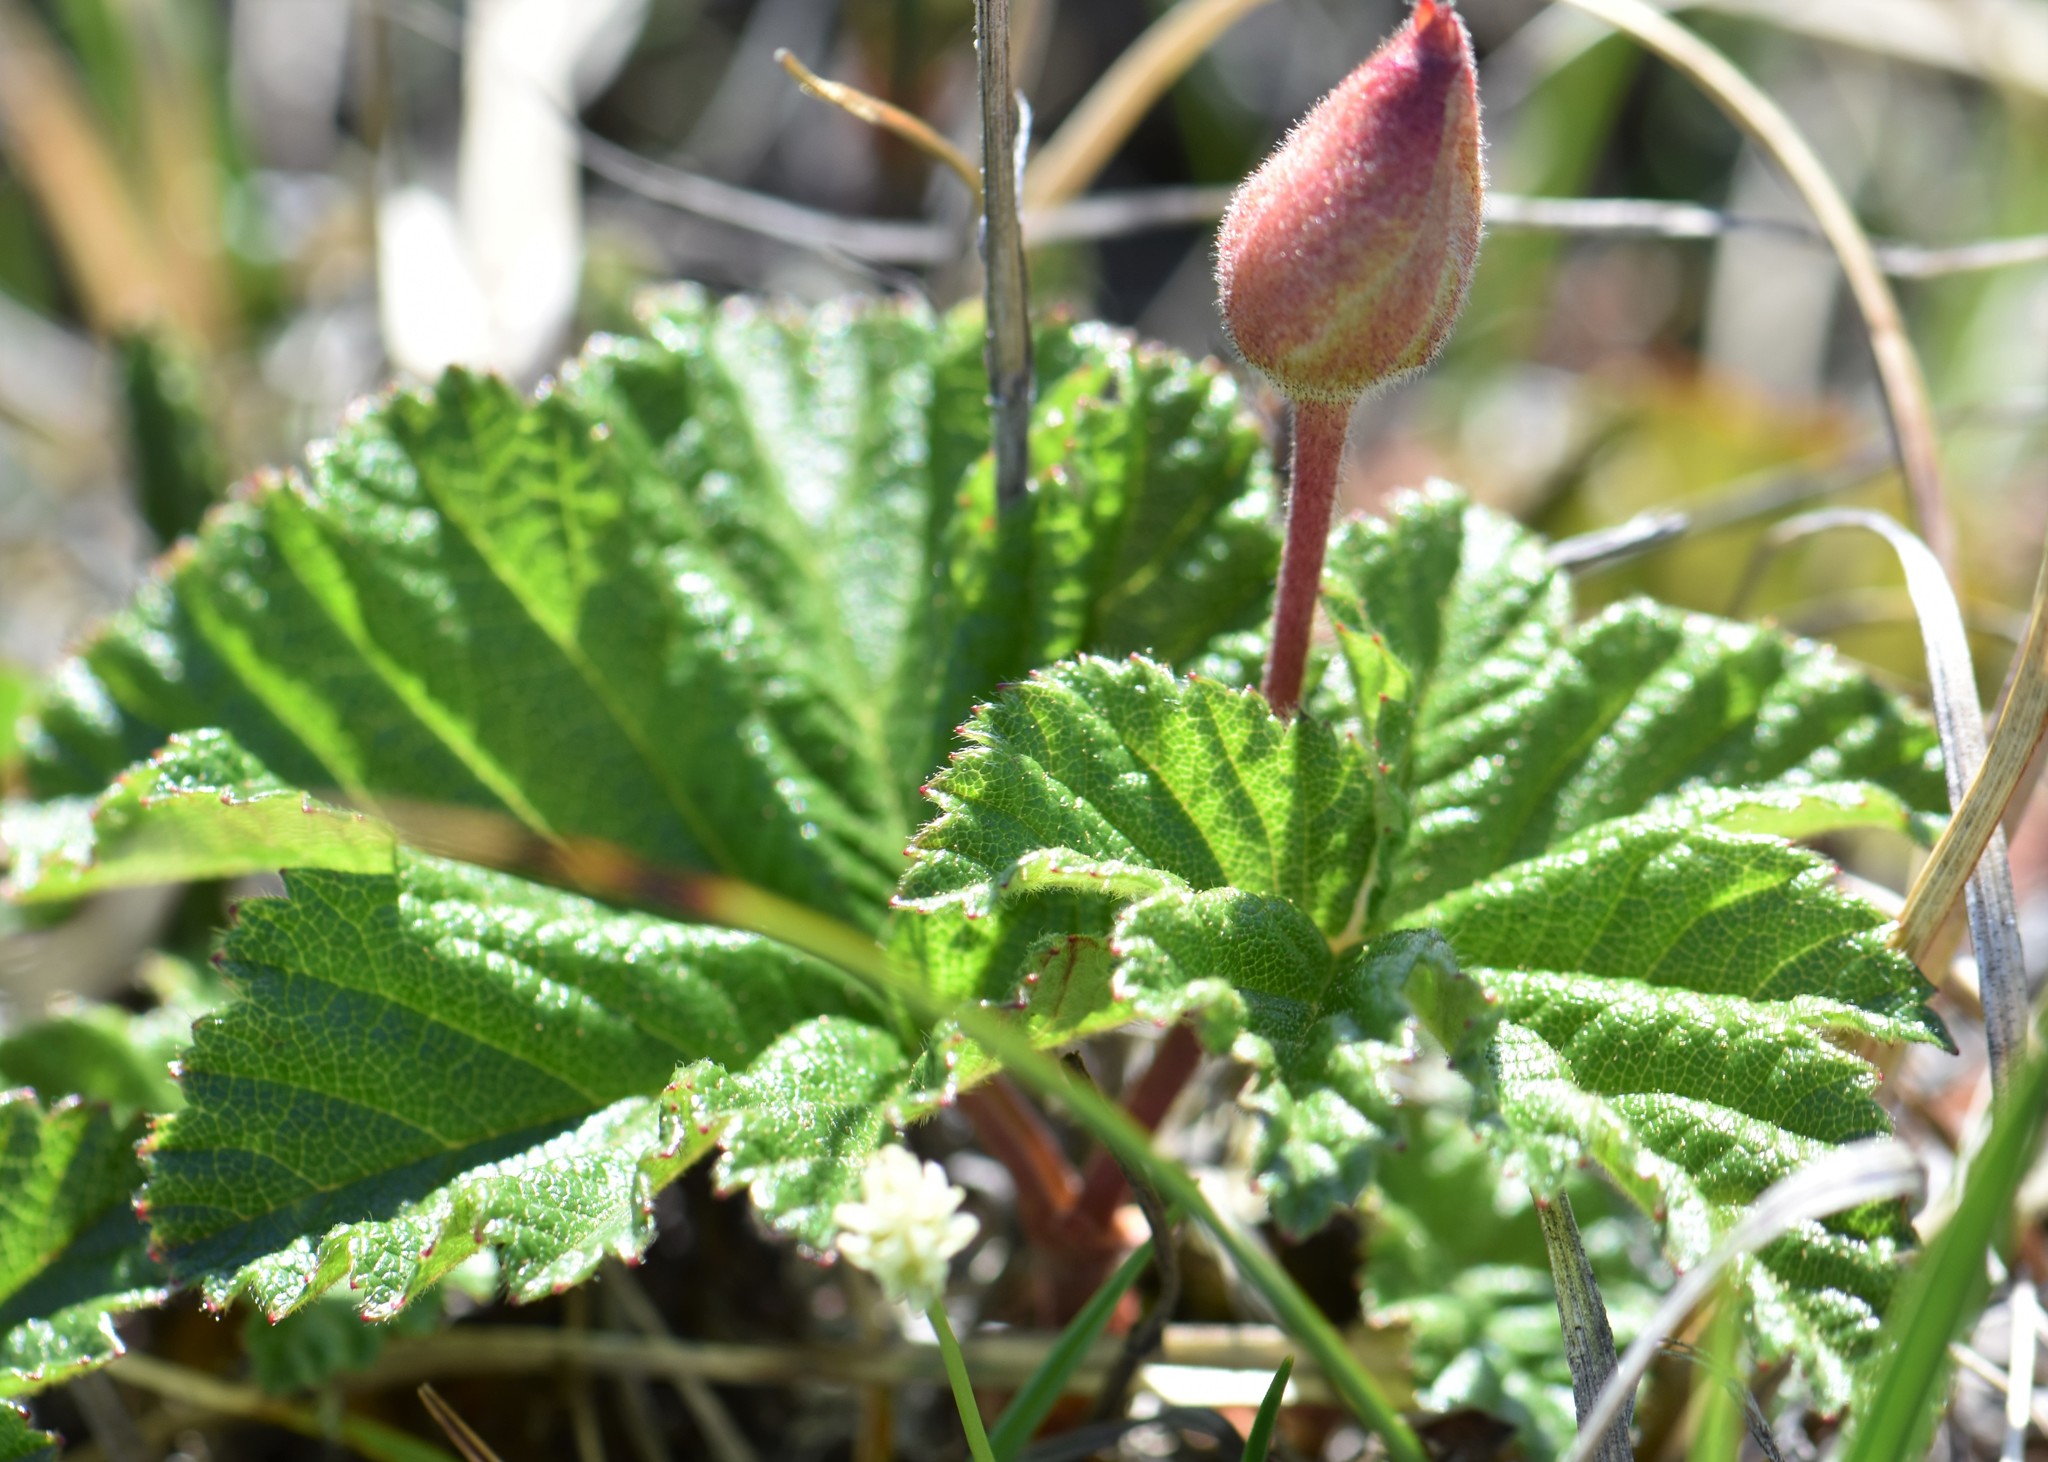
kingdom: Plantae
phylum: Tracheophyta
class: Magnoliopsida
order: Rosales
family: Rosaceae
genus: Rubus
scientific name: Rubus chamaemorus
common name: Cloudberry
